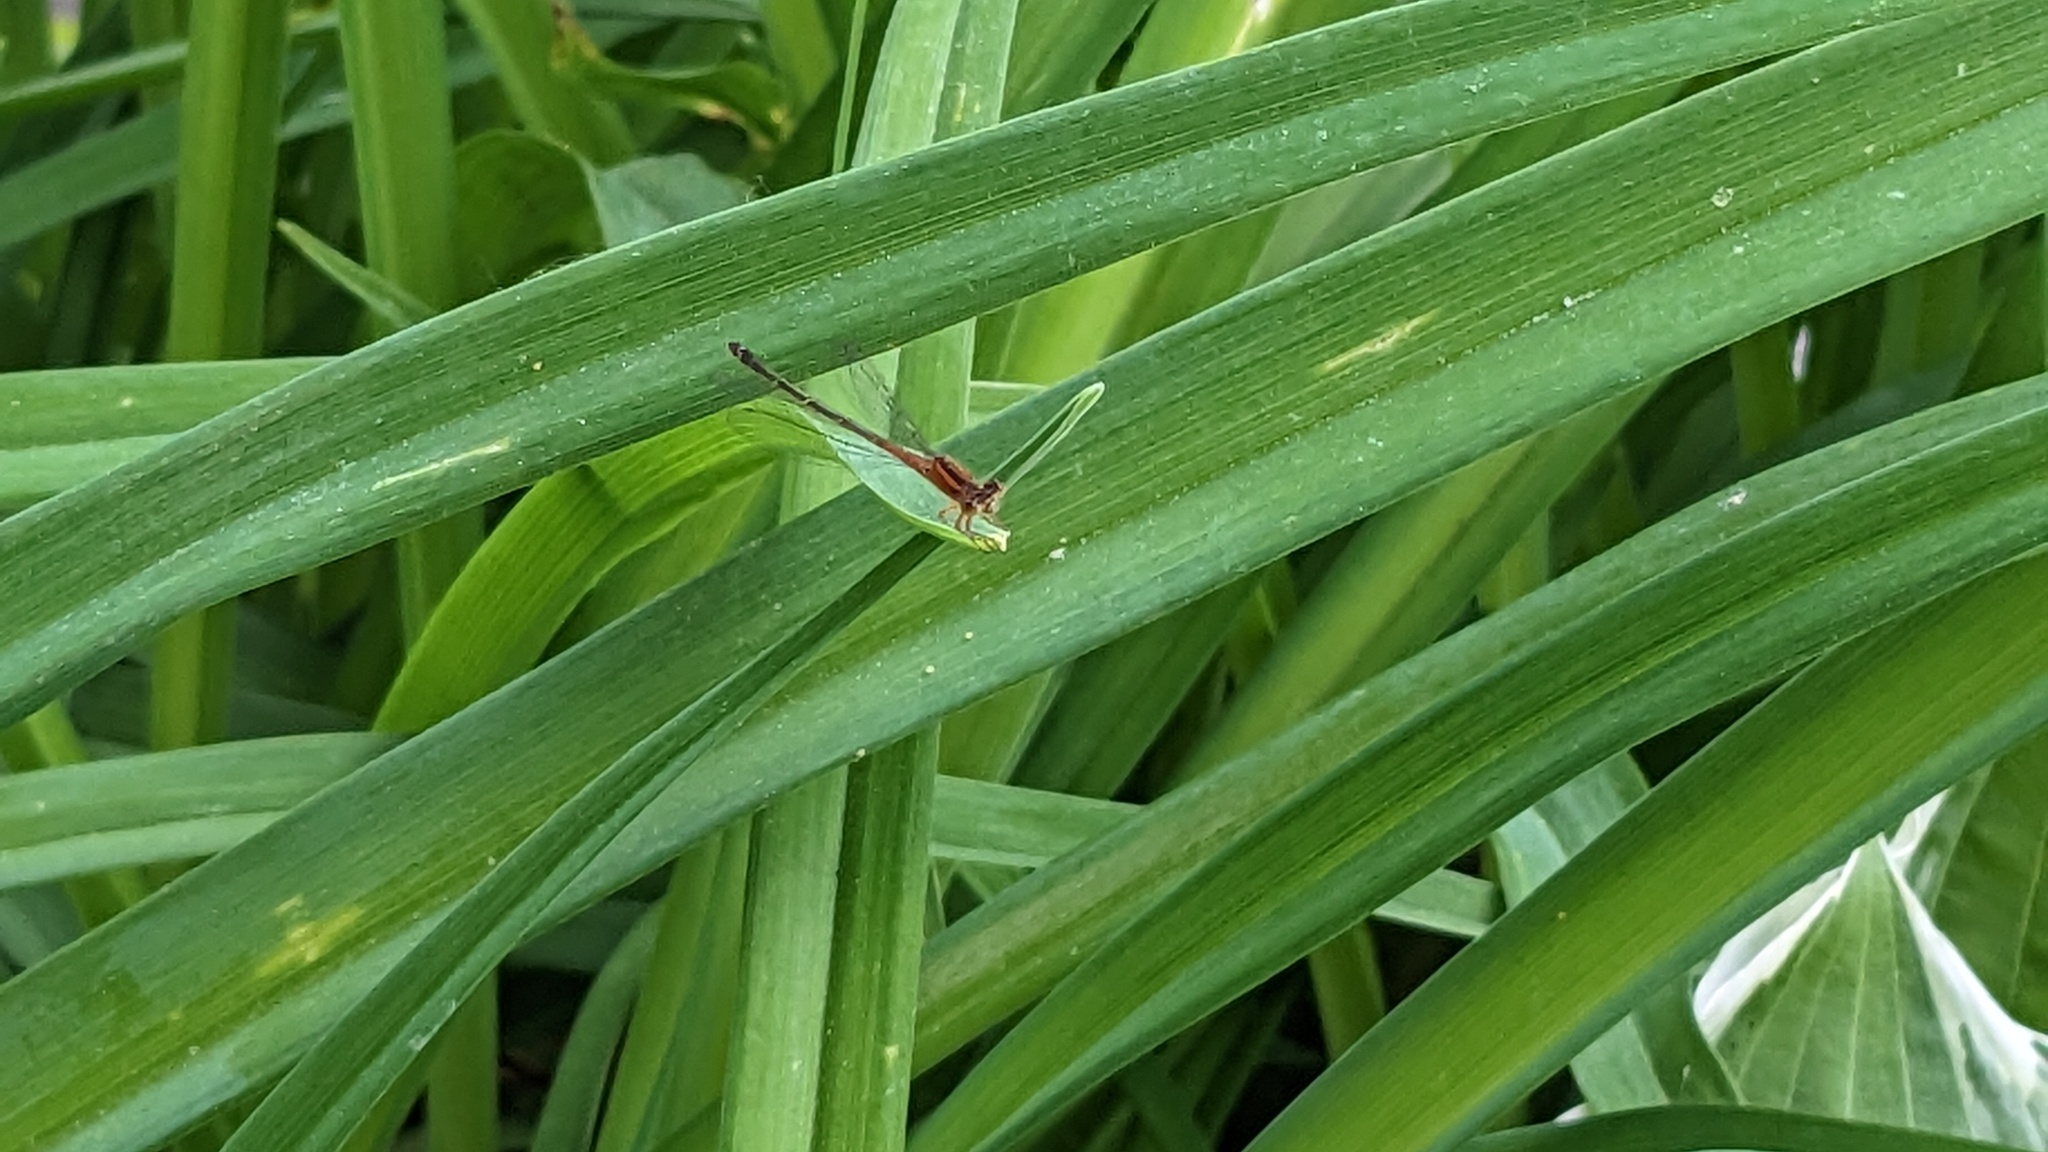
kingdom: Animalia
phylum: Arthropoda
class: Insecta
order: Odonata
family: Coenagrionidae
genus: Ischnura
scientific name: Ischnura verticalis
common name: Eastern forktail
